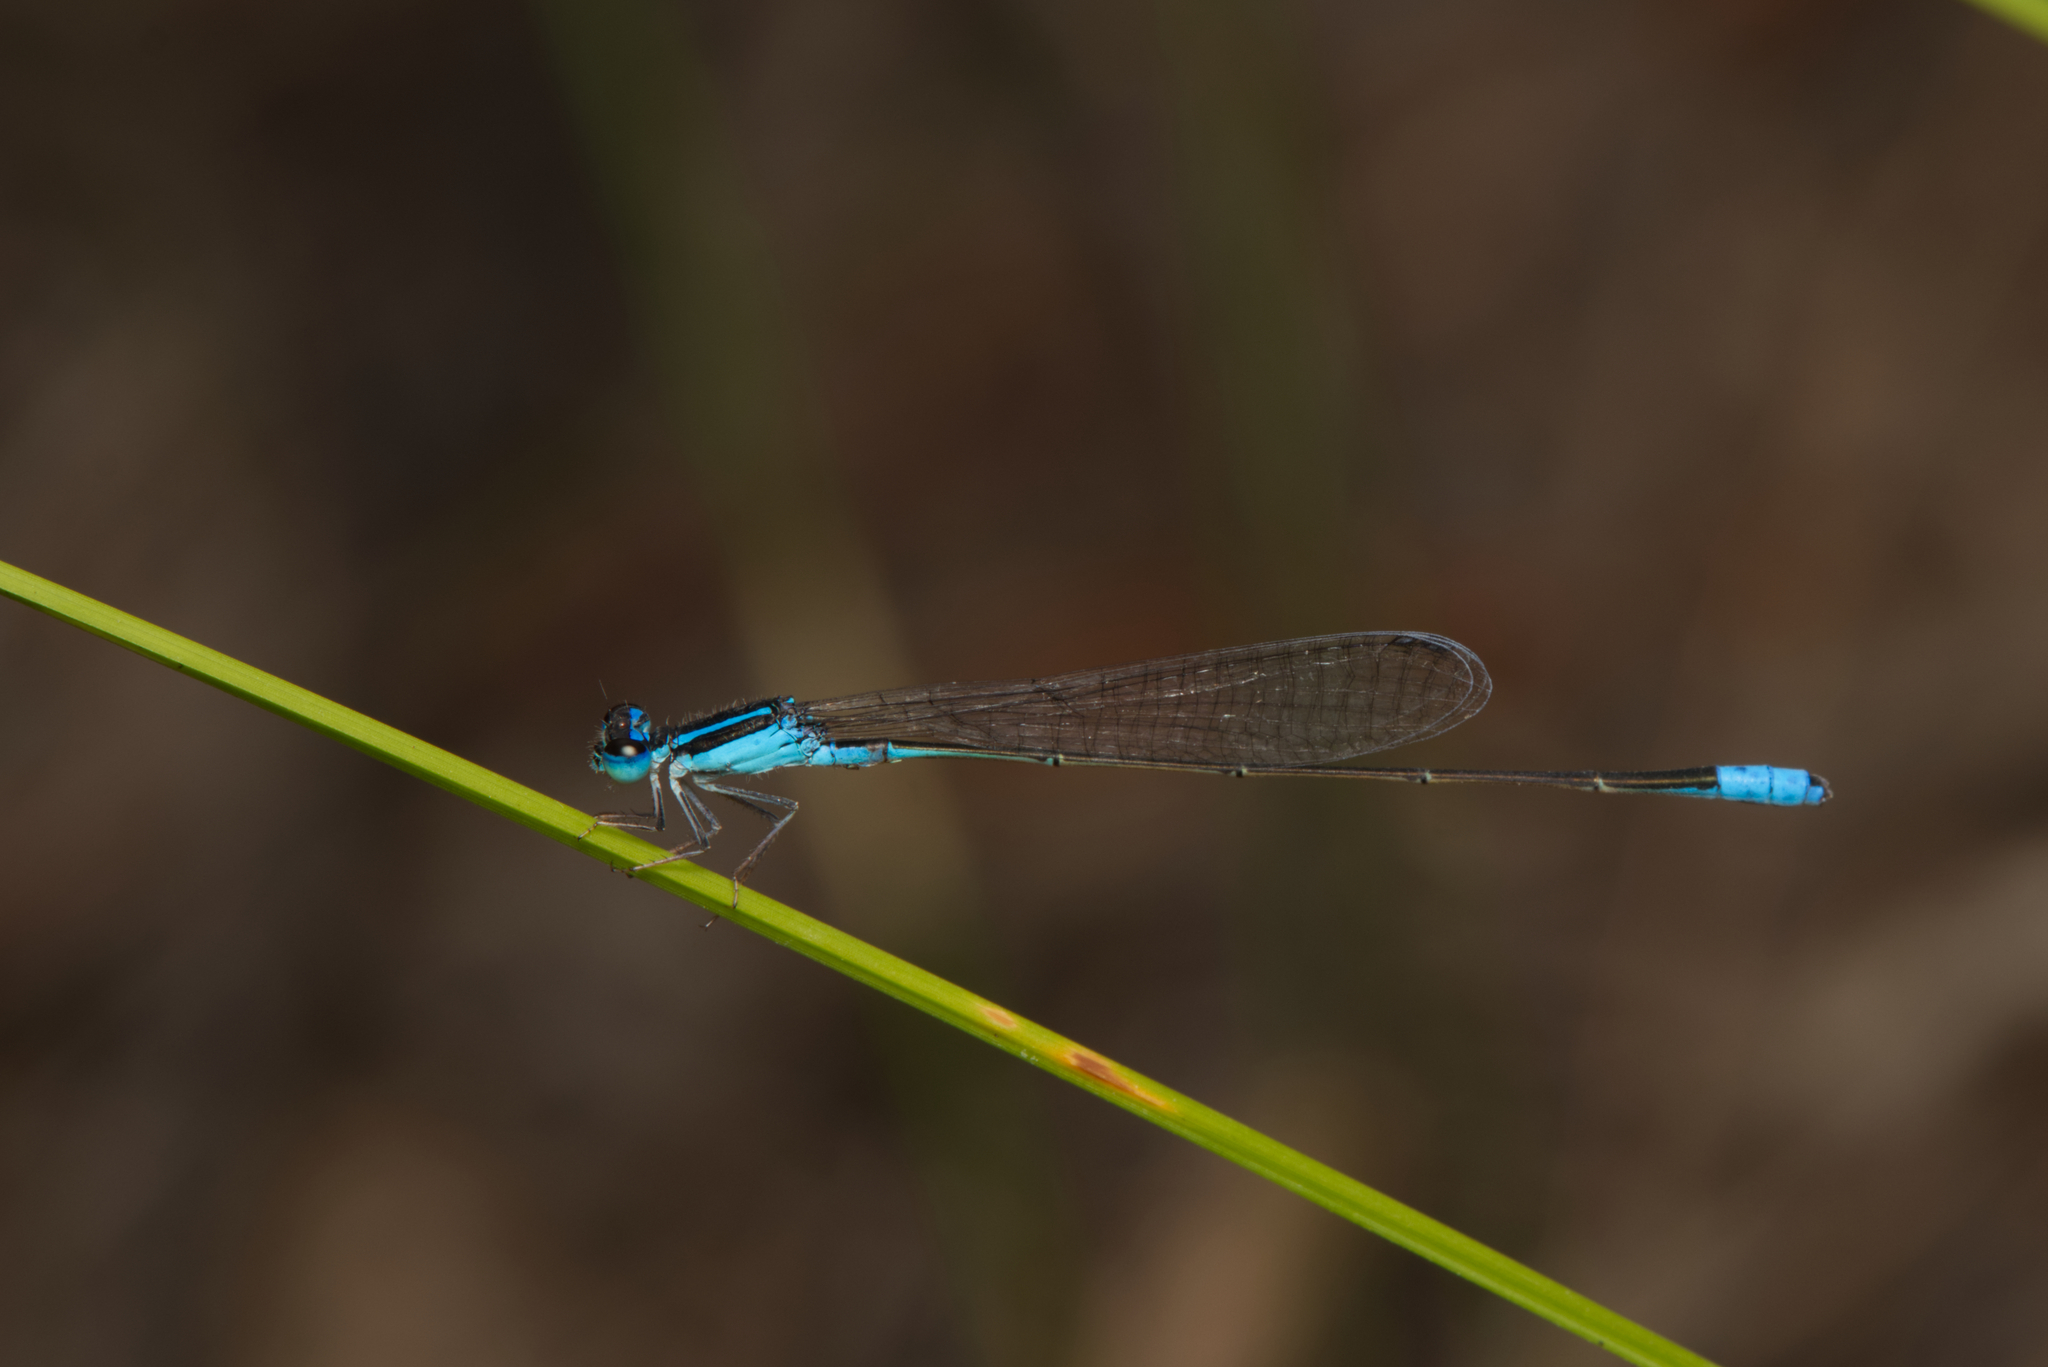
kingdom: Animalia
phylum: Arthropoda
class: Insecta
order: Odonata
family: Coenagrionidae
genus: Aciagrion
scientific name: Aciagrion fragile
